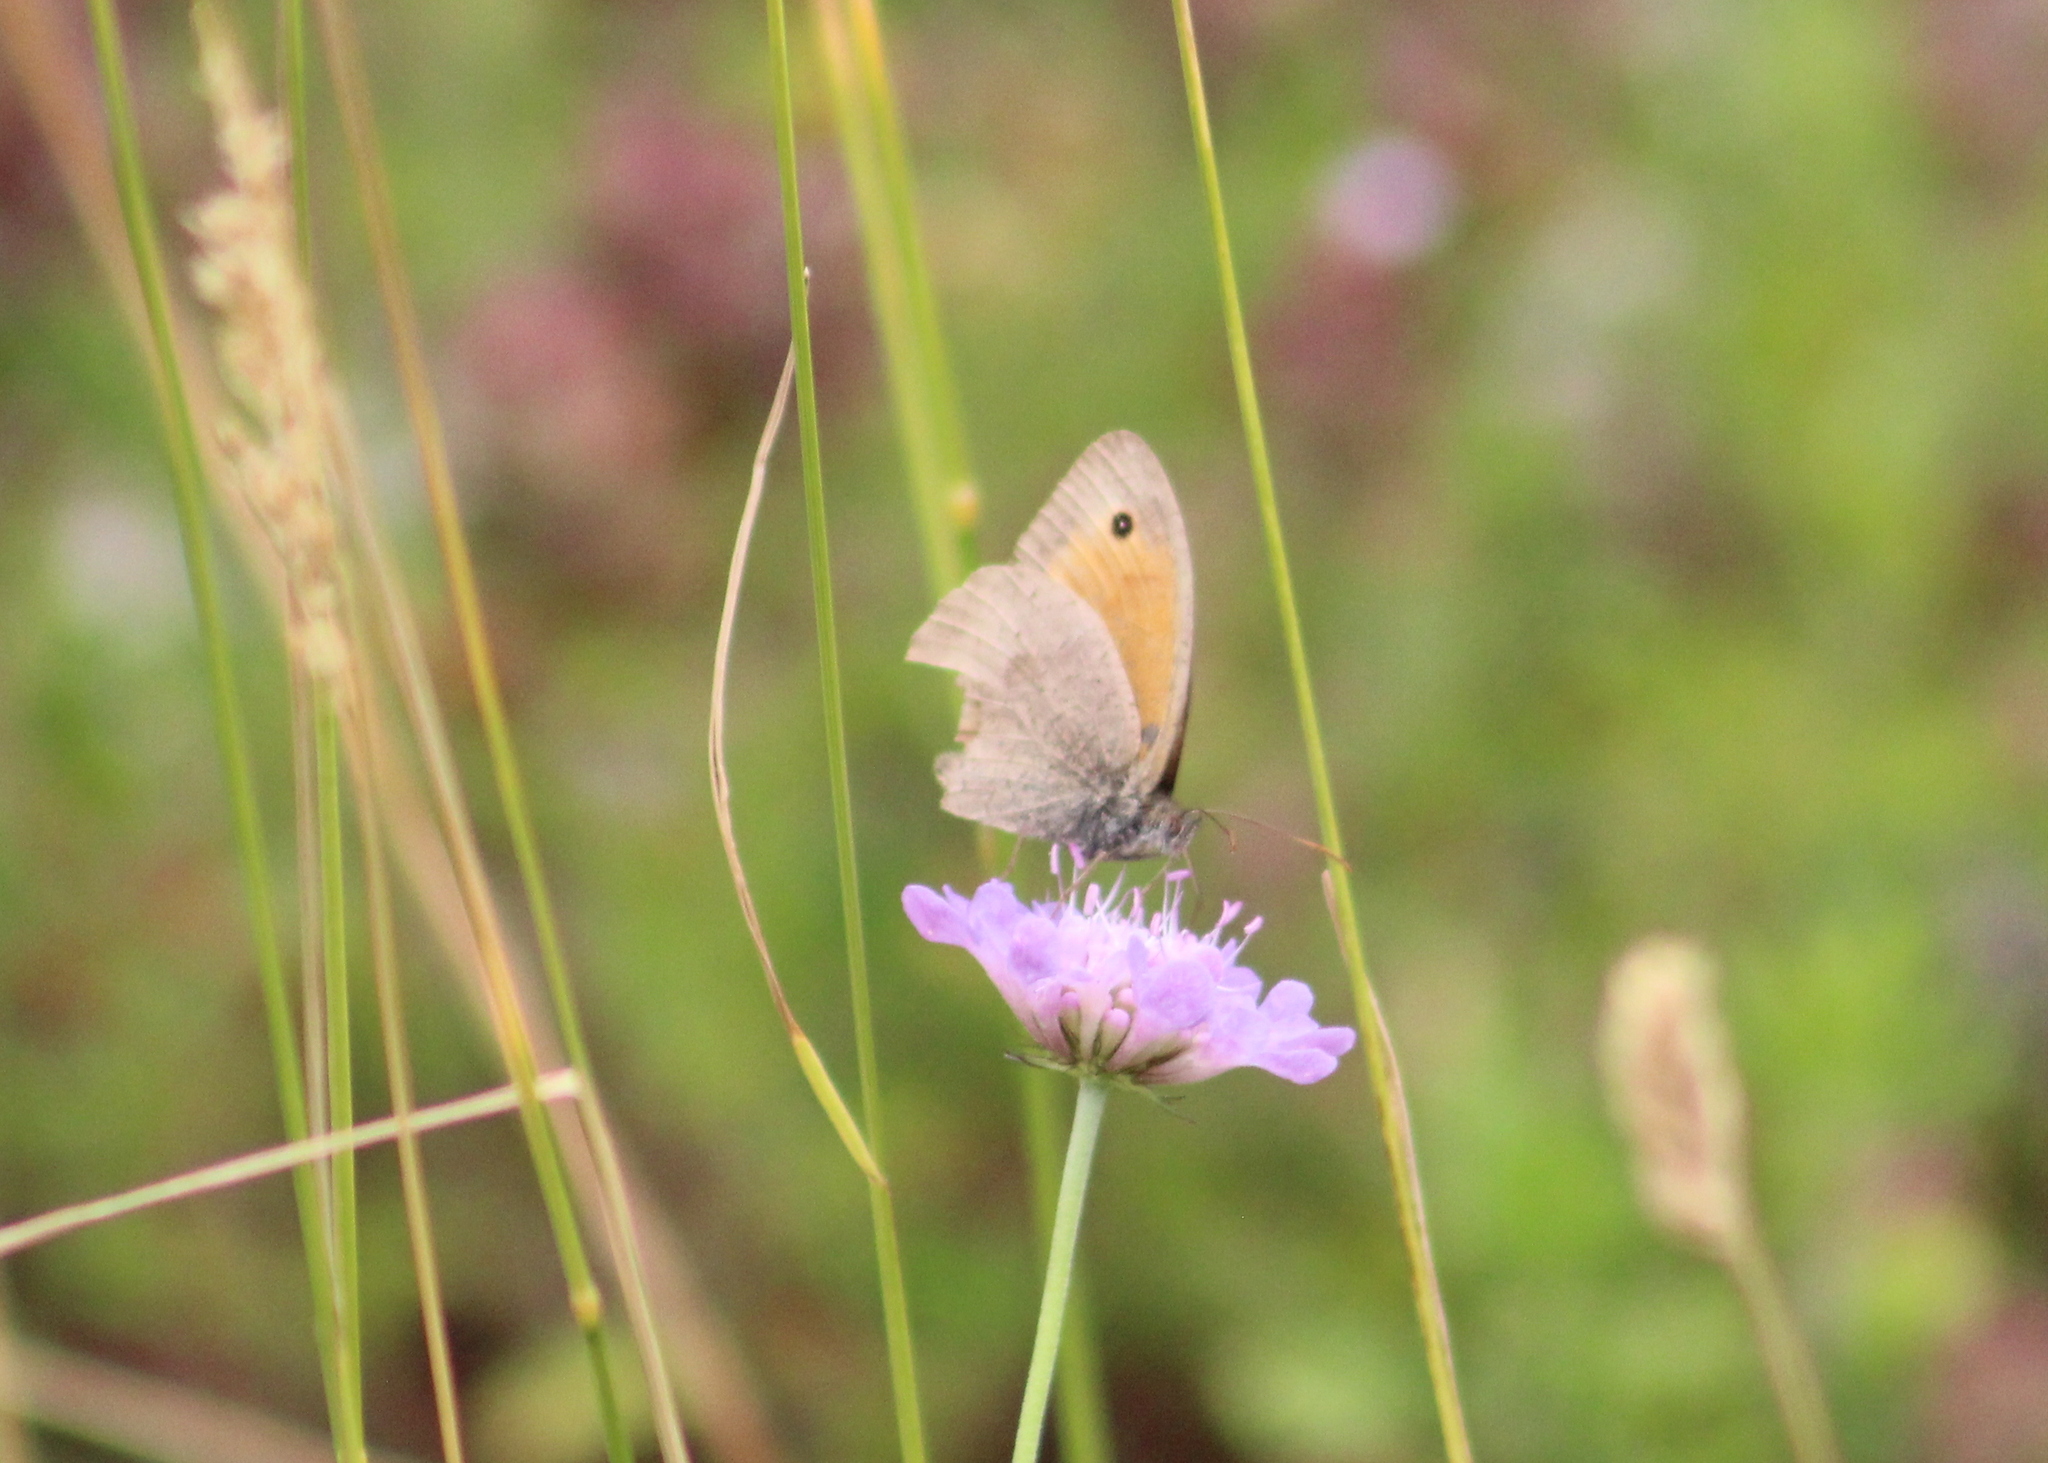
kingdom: Animalia
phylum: Arthropoda
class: Insecta
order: Lepidoptera
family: Nymphalidae
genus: Maniola
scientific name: Maniola jurtina
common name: Meadow brown
